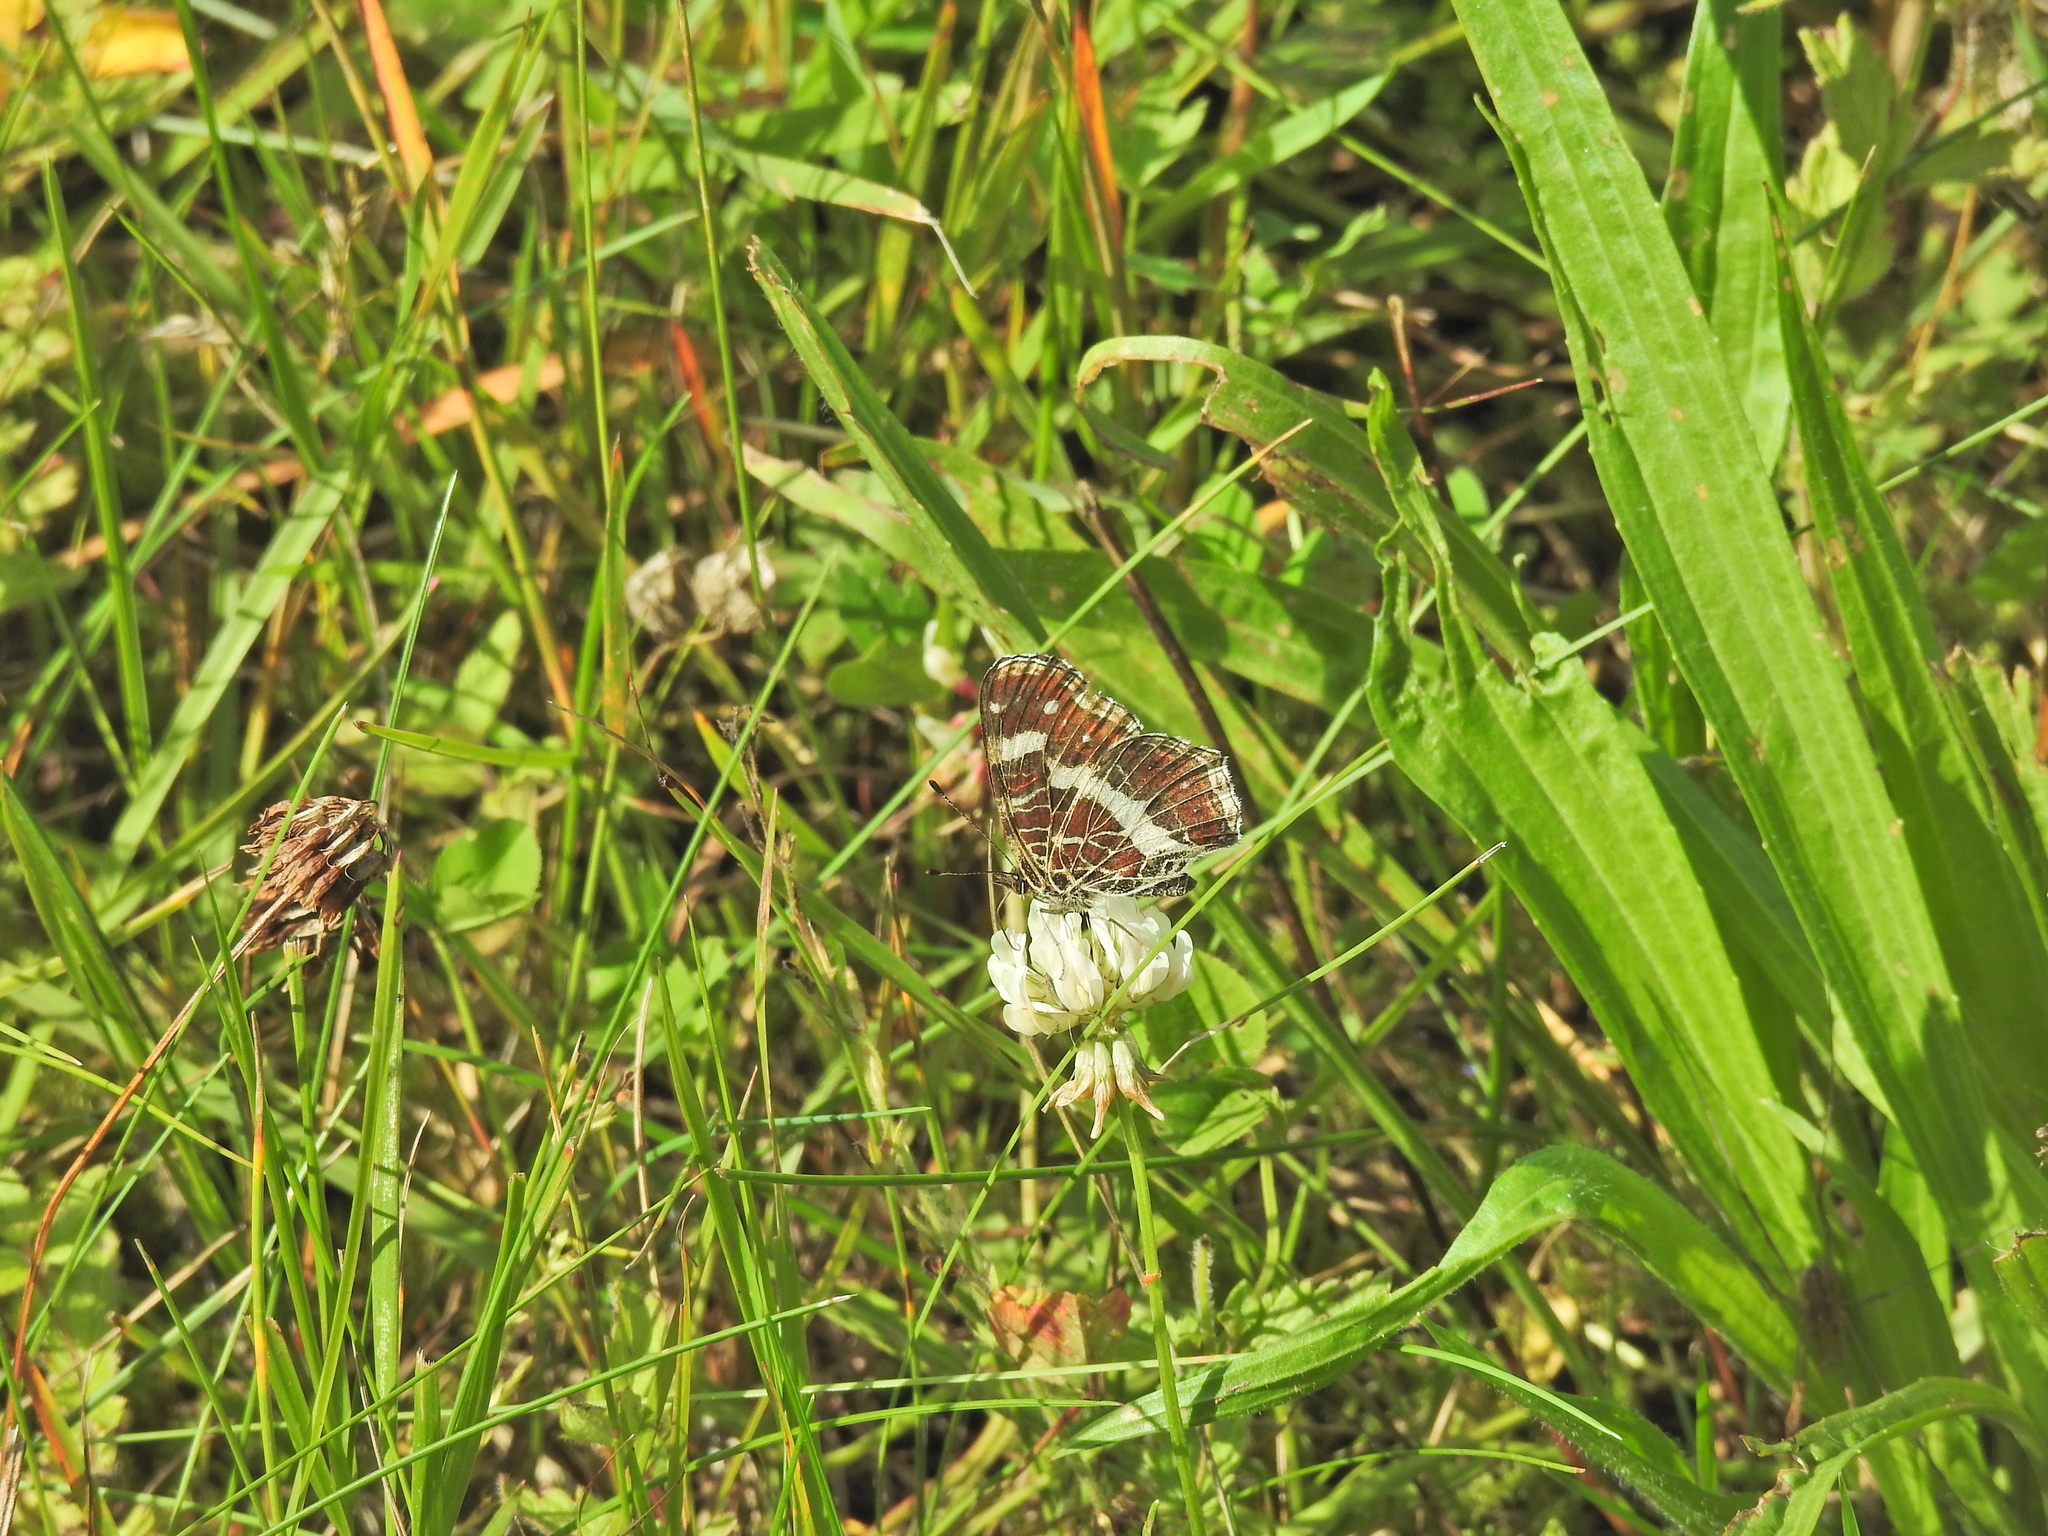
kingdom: Animalia
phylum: Arthropoda
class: Insecta
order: Lepidoptera
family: Nymphalidae
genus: Araschnia
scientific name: Araschnia levana
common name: Map butterfly
